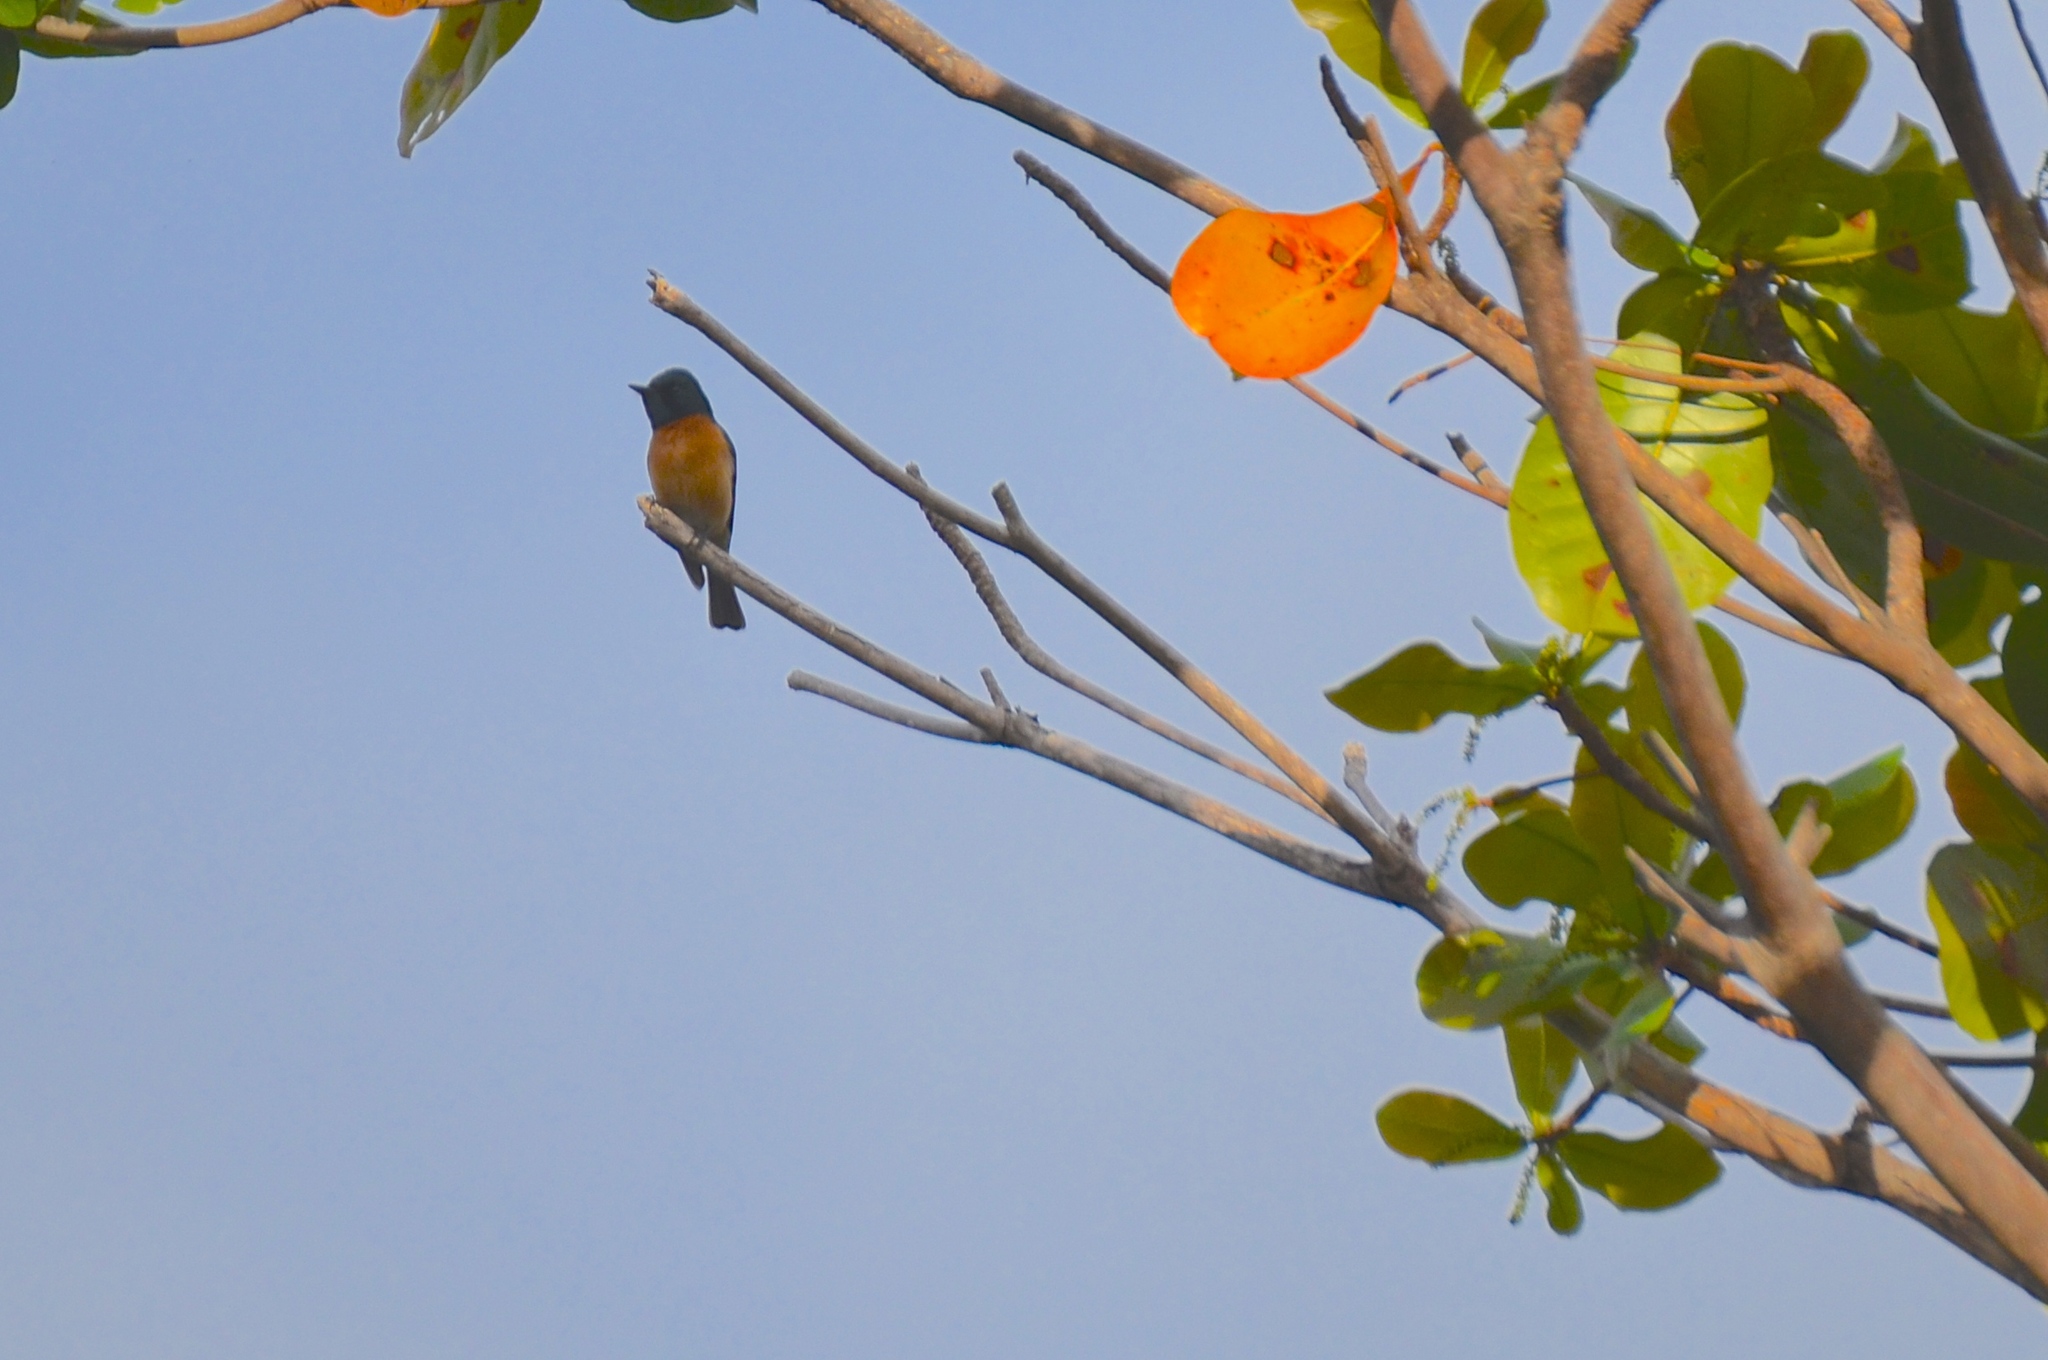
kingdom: Animalia
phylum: Chordata
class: Aves
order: Passeriformes
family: Monarchidae
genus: Myiagra
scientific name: Myiagra vanikorensis
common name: Vanikoro flycatcher
